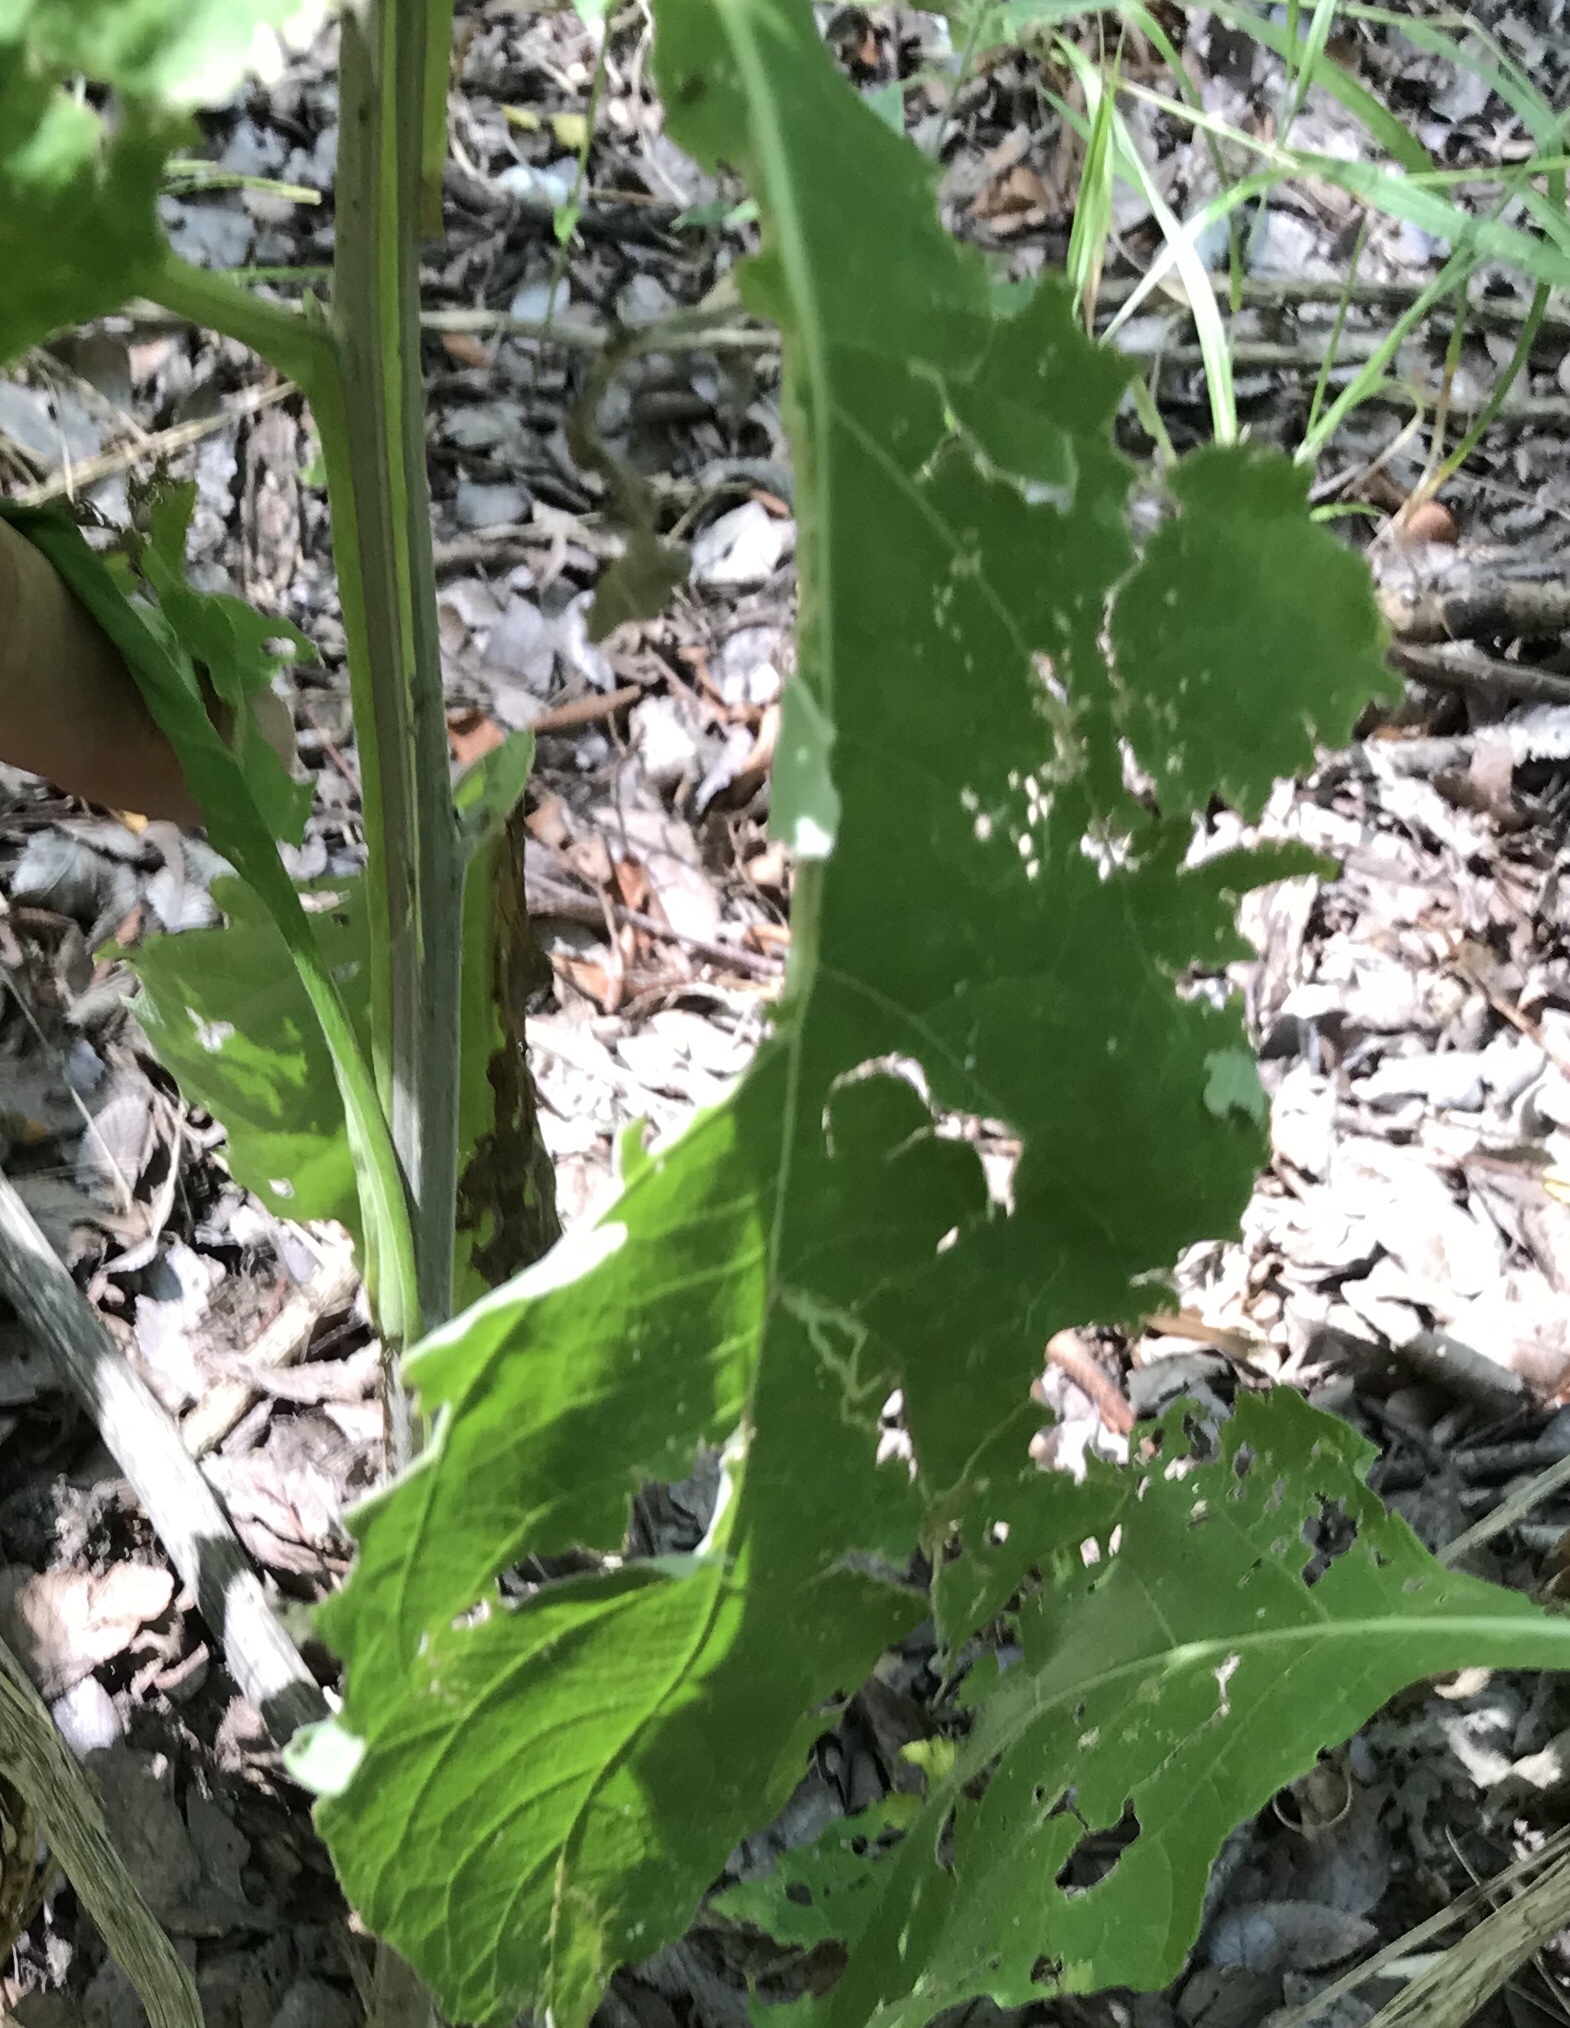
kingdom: Plantae
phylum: Tracheophyta
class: Magnoliopsida
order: Asterales
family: Asteraceae
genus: Verbesina
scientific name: Verbesina virginica
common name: Frostweed
